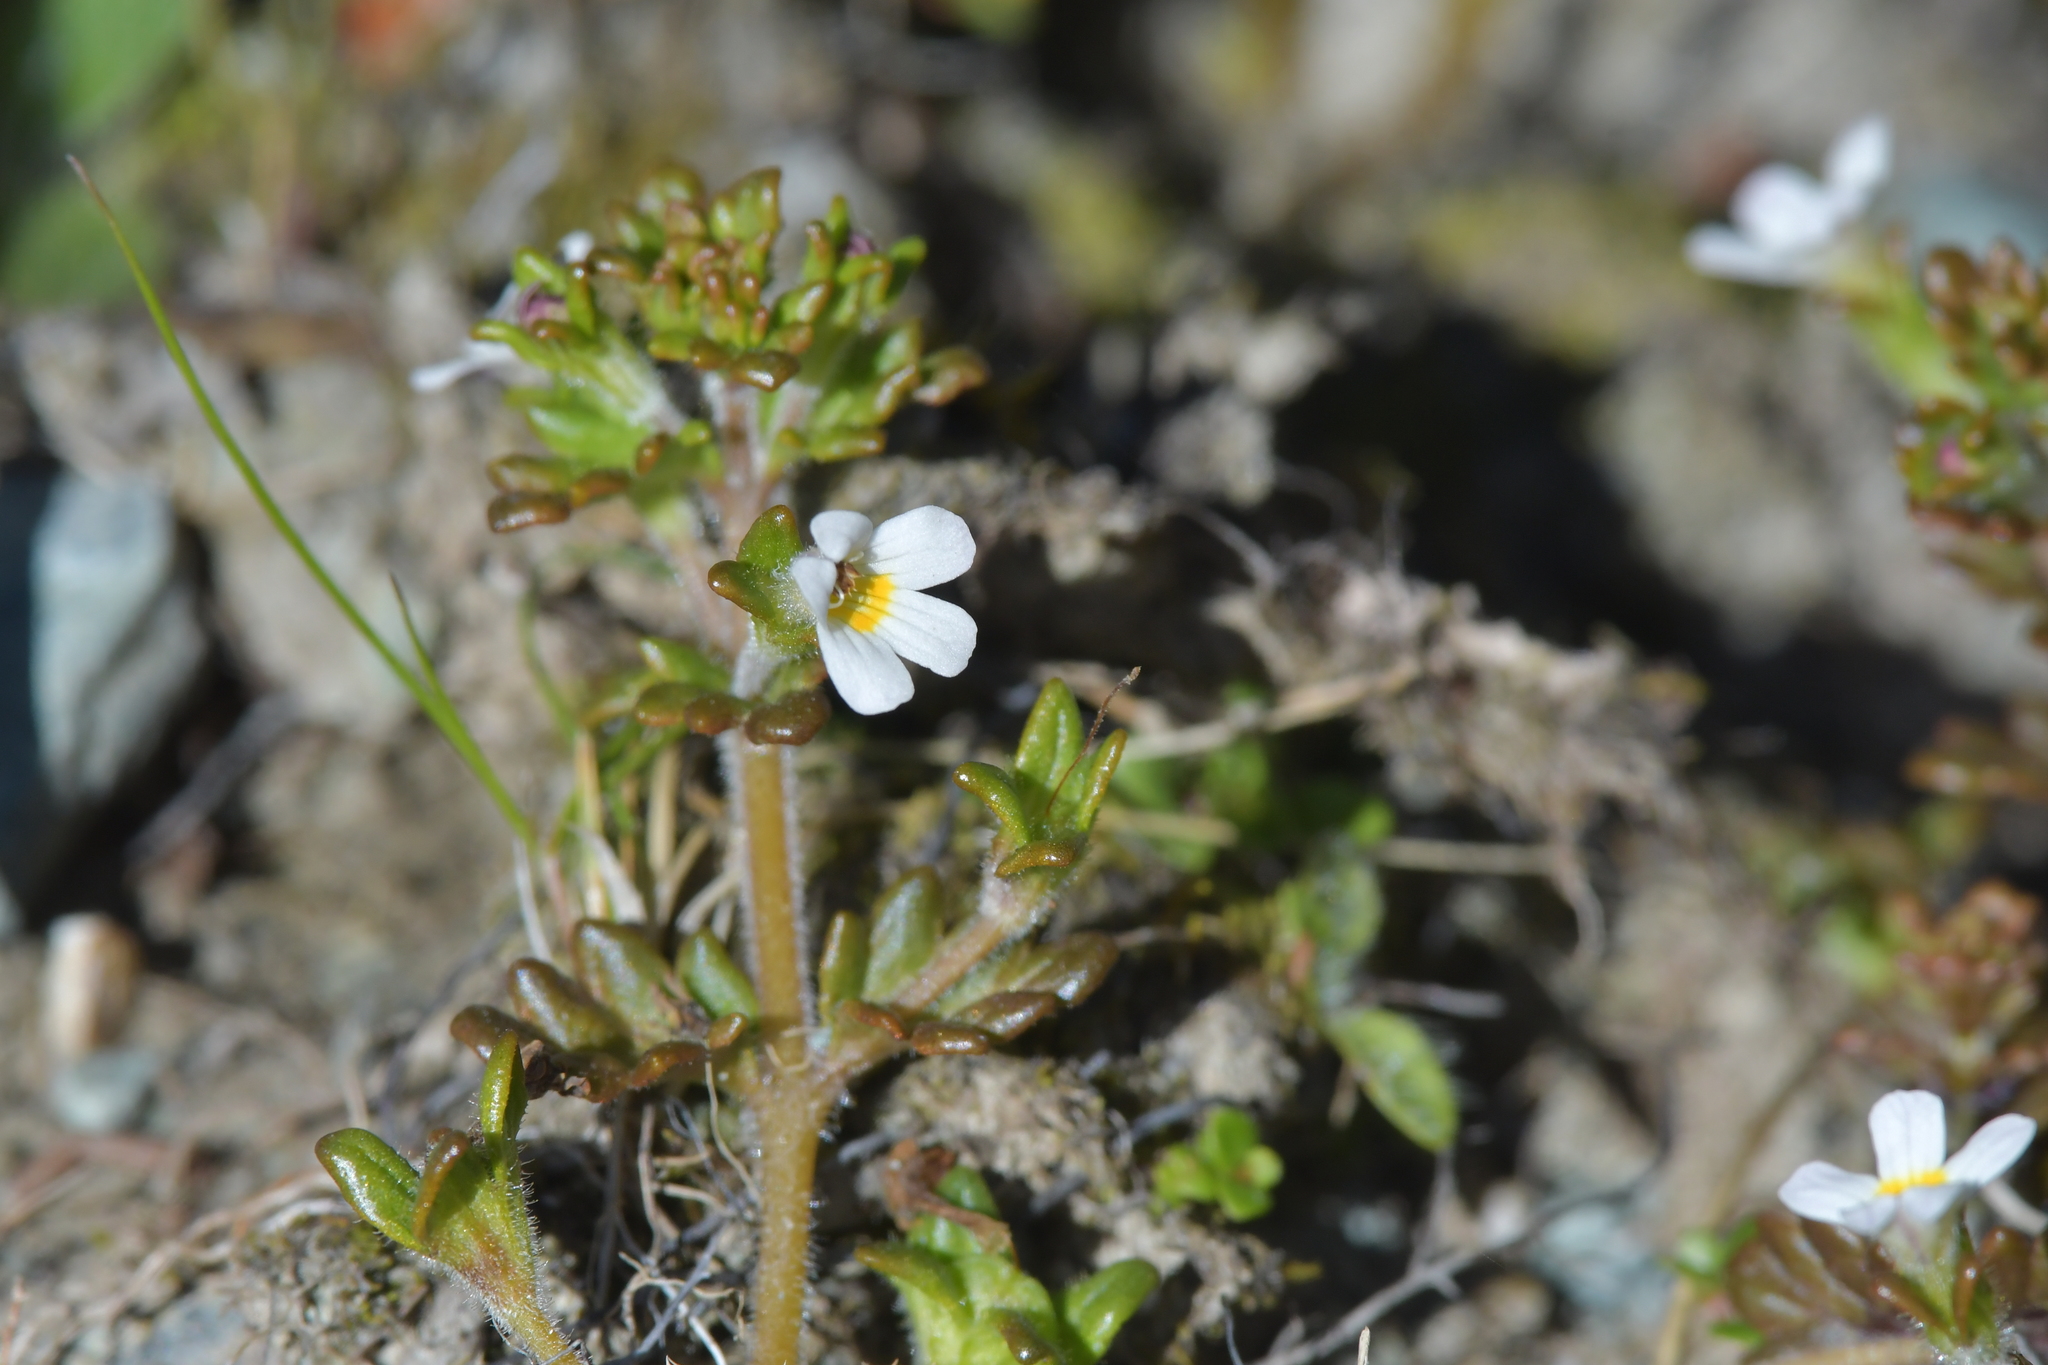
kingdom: Plantae
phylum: Tracheophyta
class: Magnoliopsida
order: Lamiales
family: Orobanchaceae
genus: Euphrasia
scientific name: Euphrasia australis
